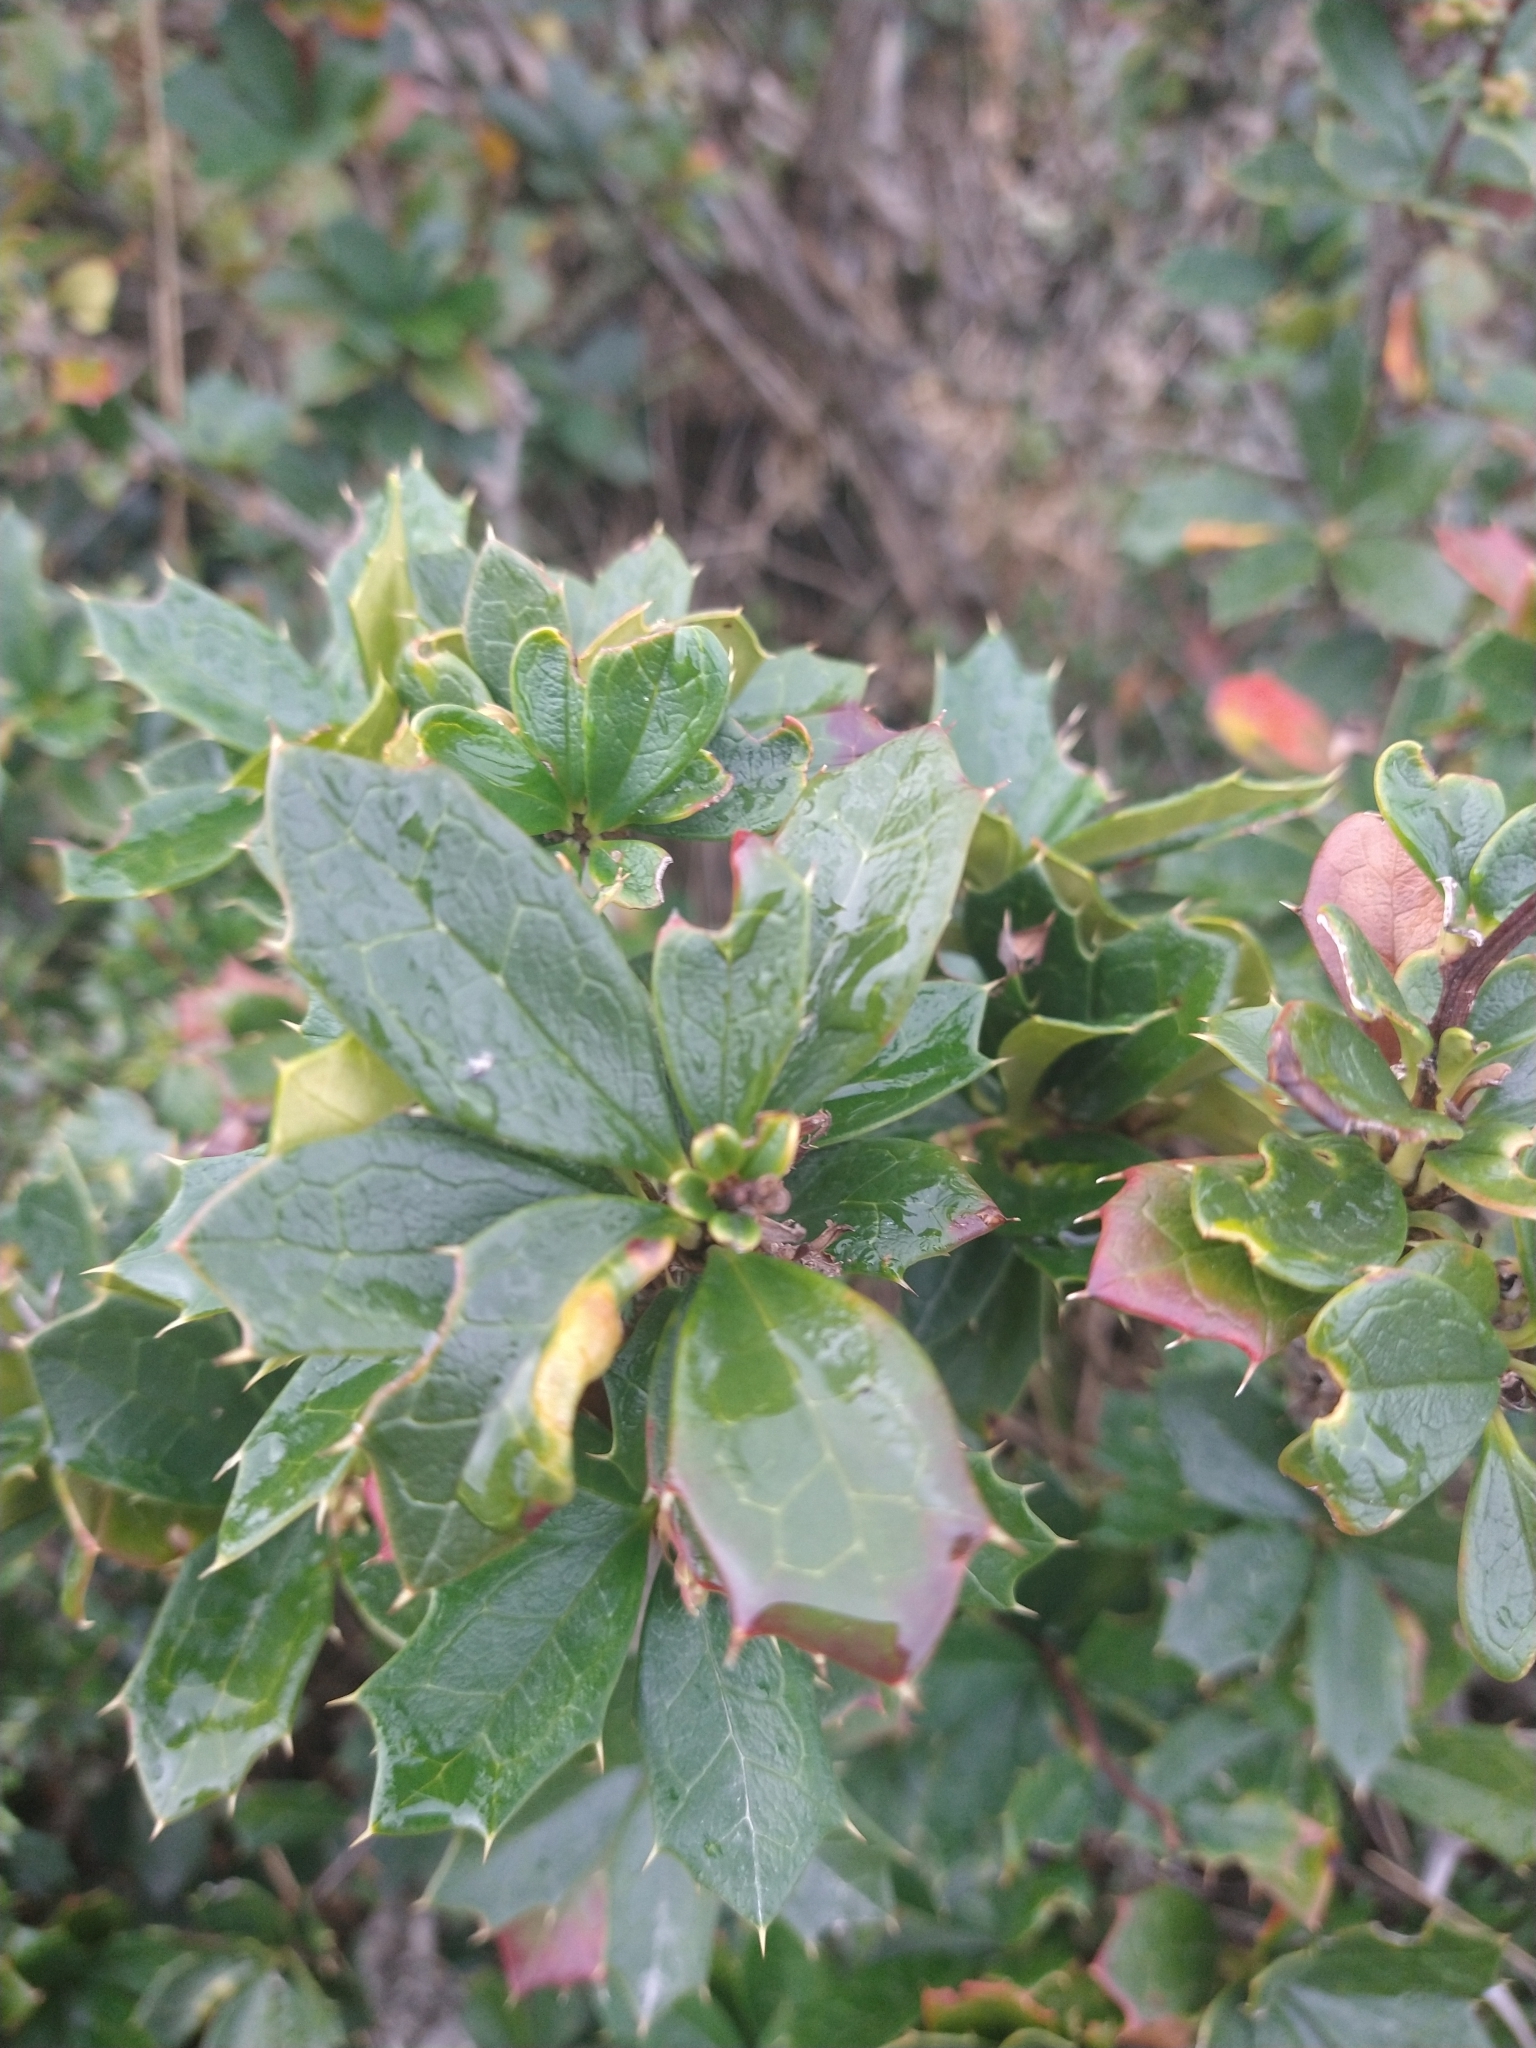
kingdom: Plantae
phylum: Tracheophyta
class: Magnoliopsida
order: Ranunculales
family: Berberidaceae
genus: Berberis
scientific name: Berberis ilicifolia
